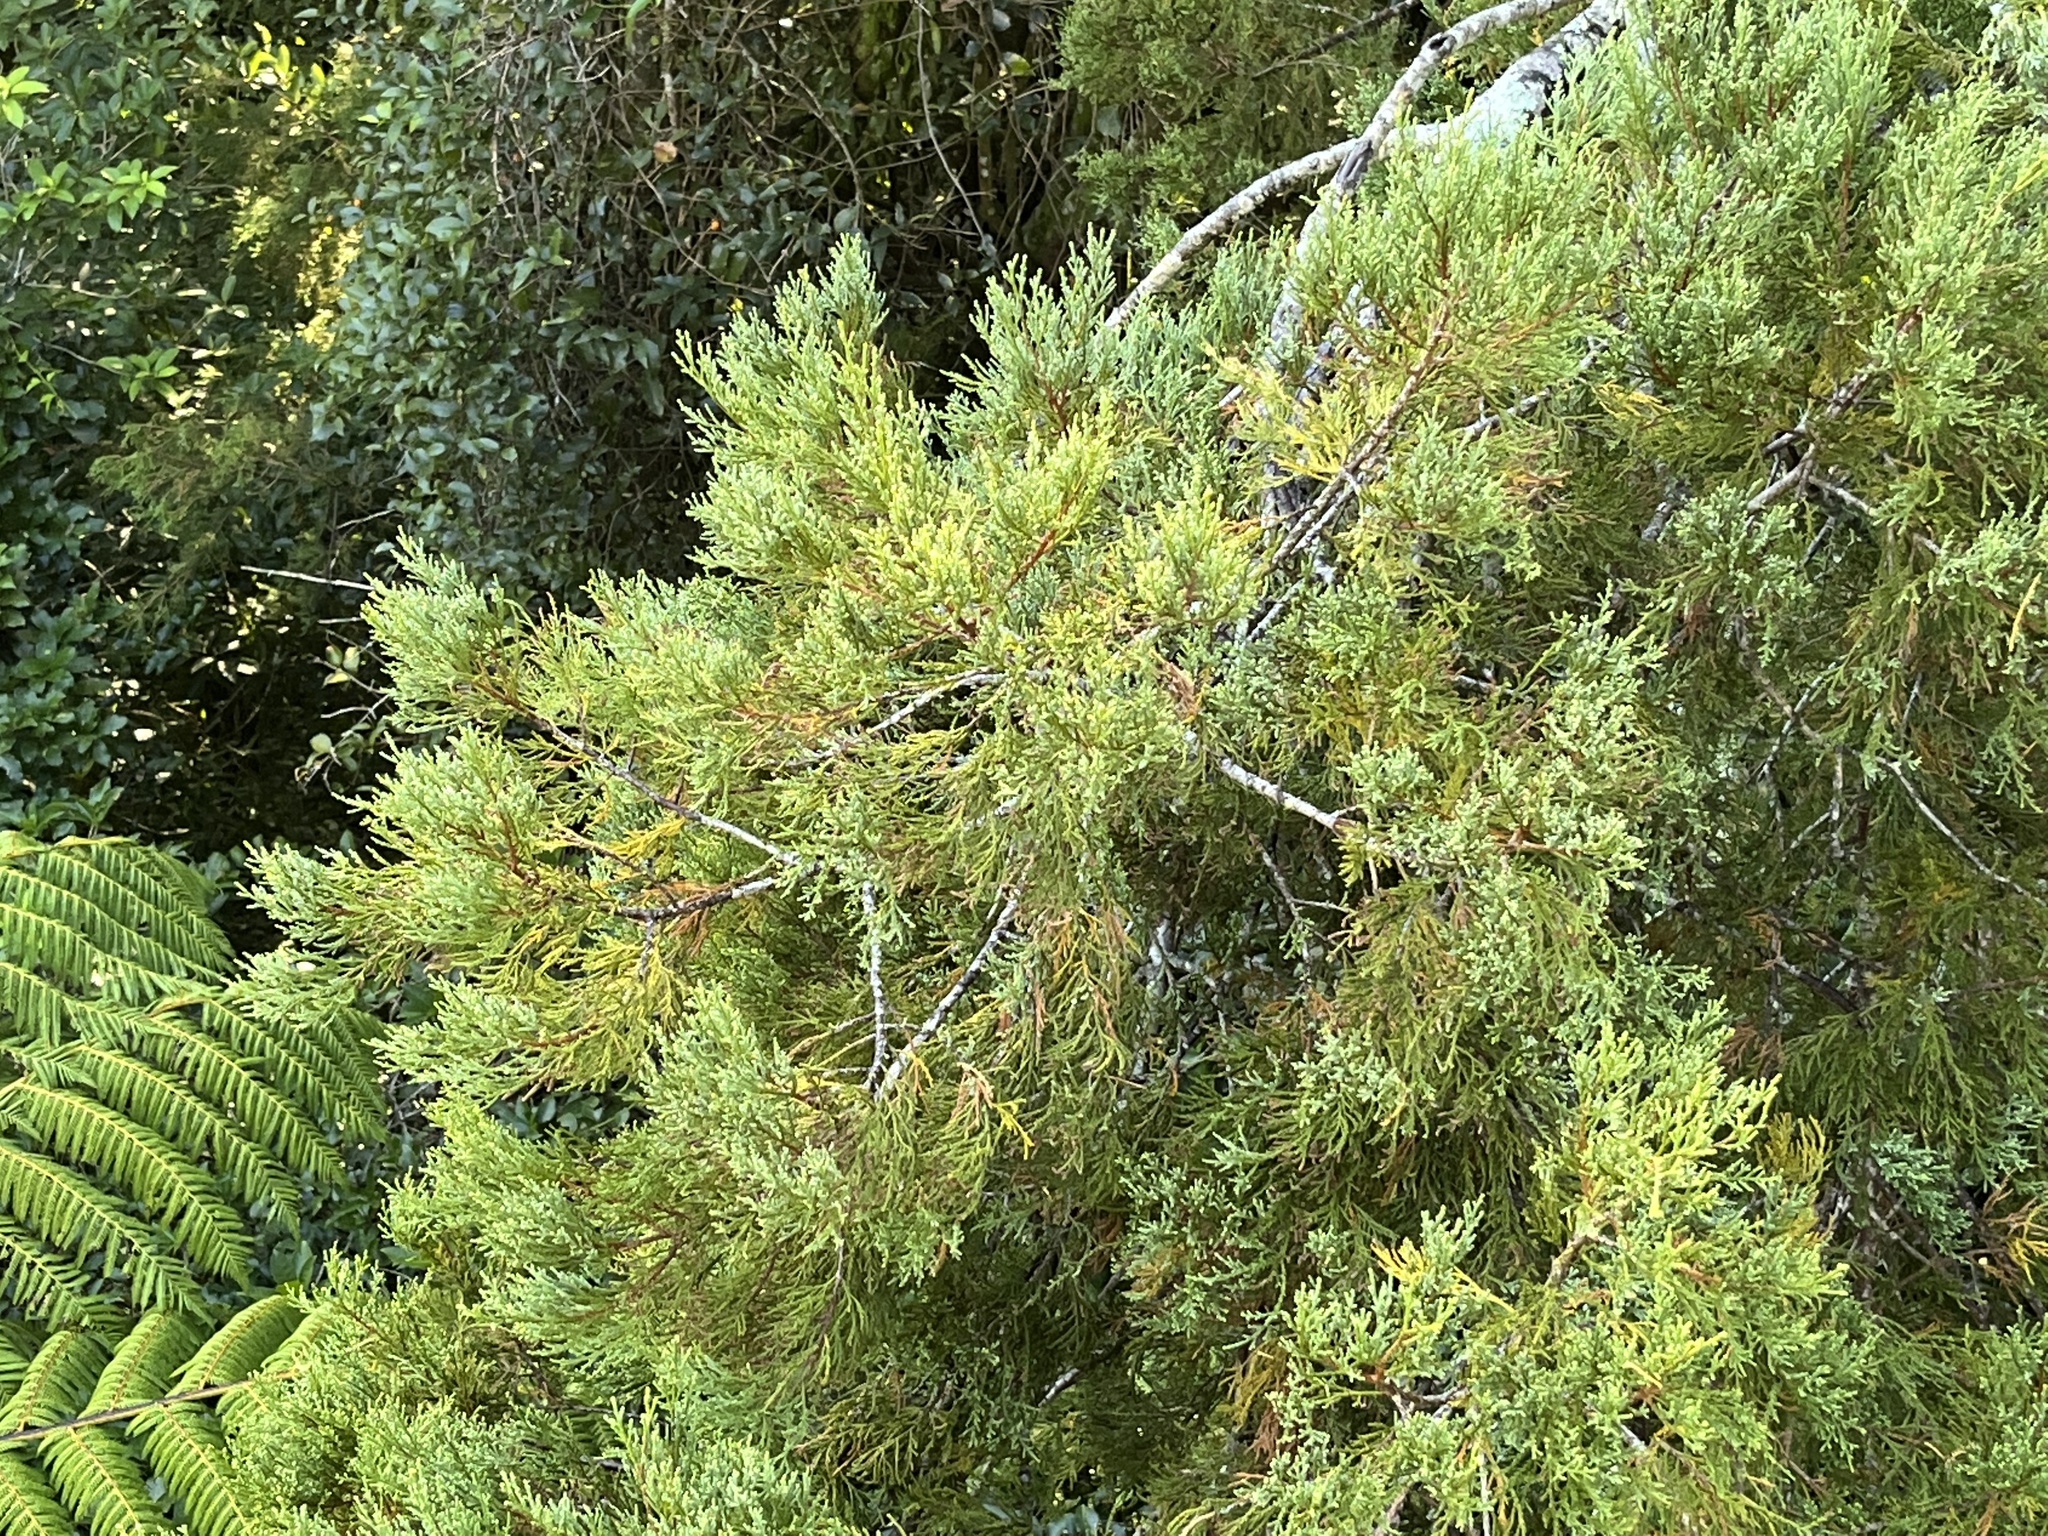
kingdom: Plantae
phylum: Tracheophyta
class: Pinopsida
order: Pinales
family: Podocarpaceae
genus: Dacrycarpus
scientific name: Dacrycarpus dacrydioides
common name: White pine
